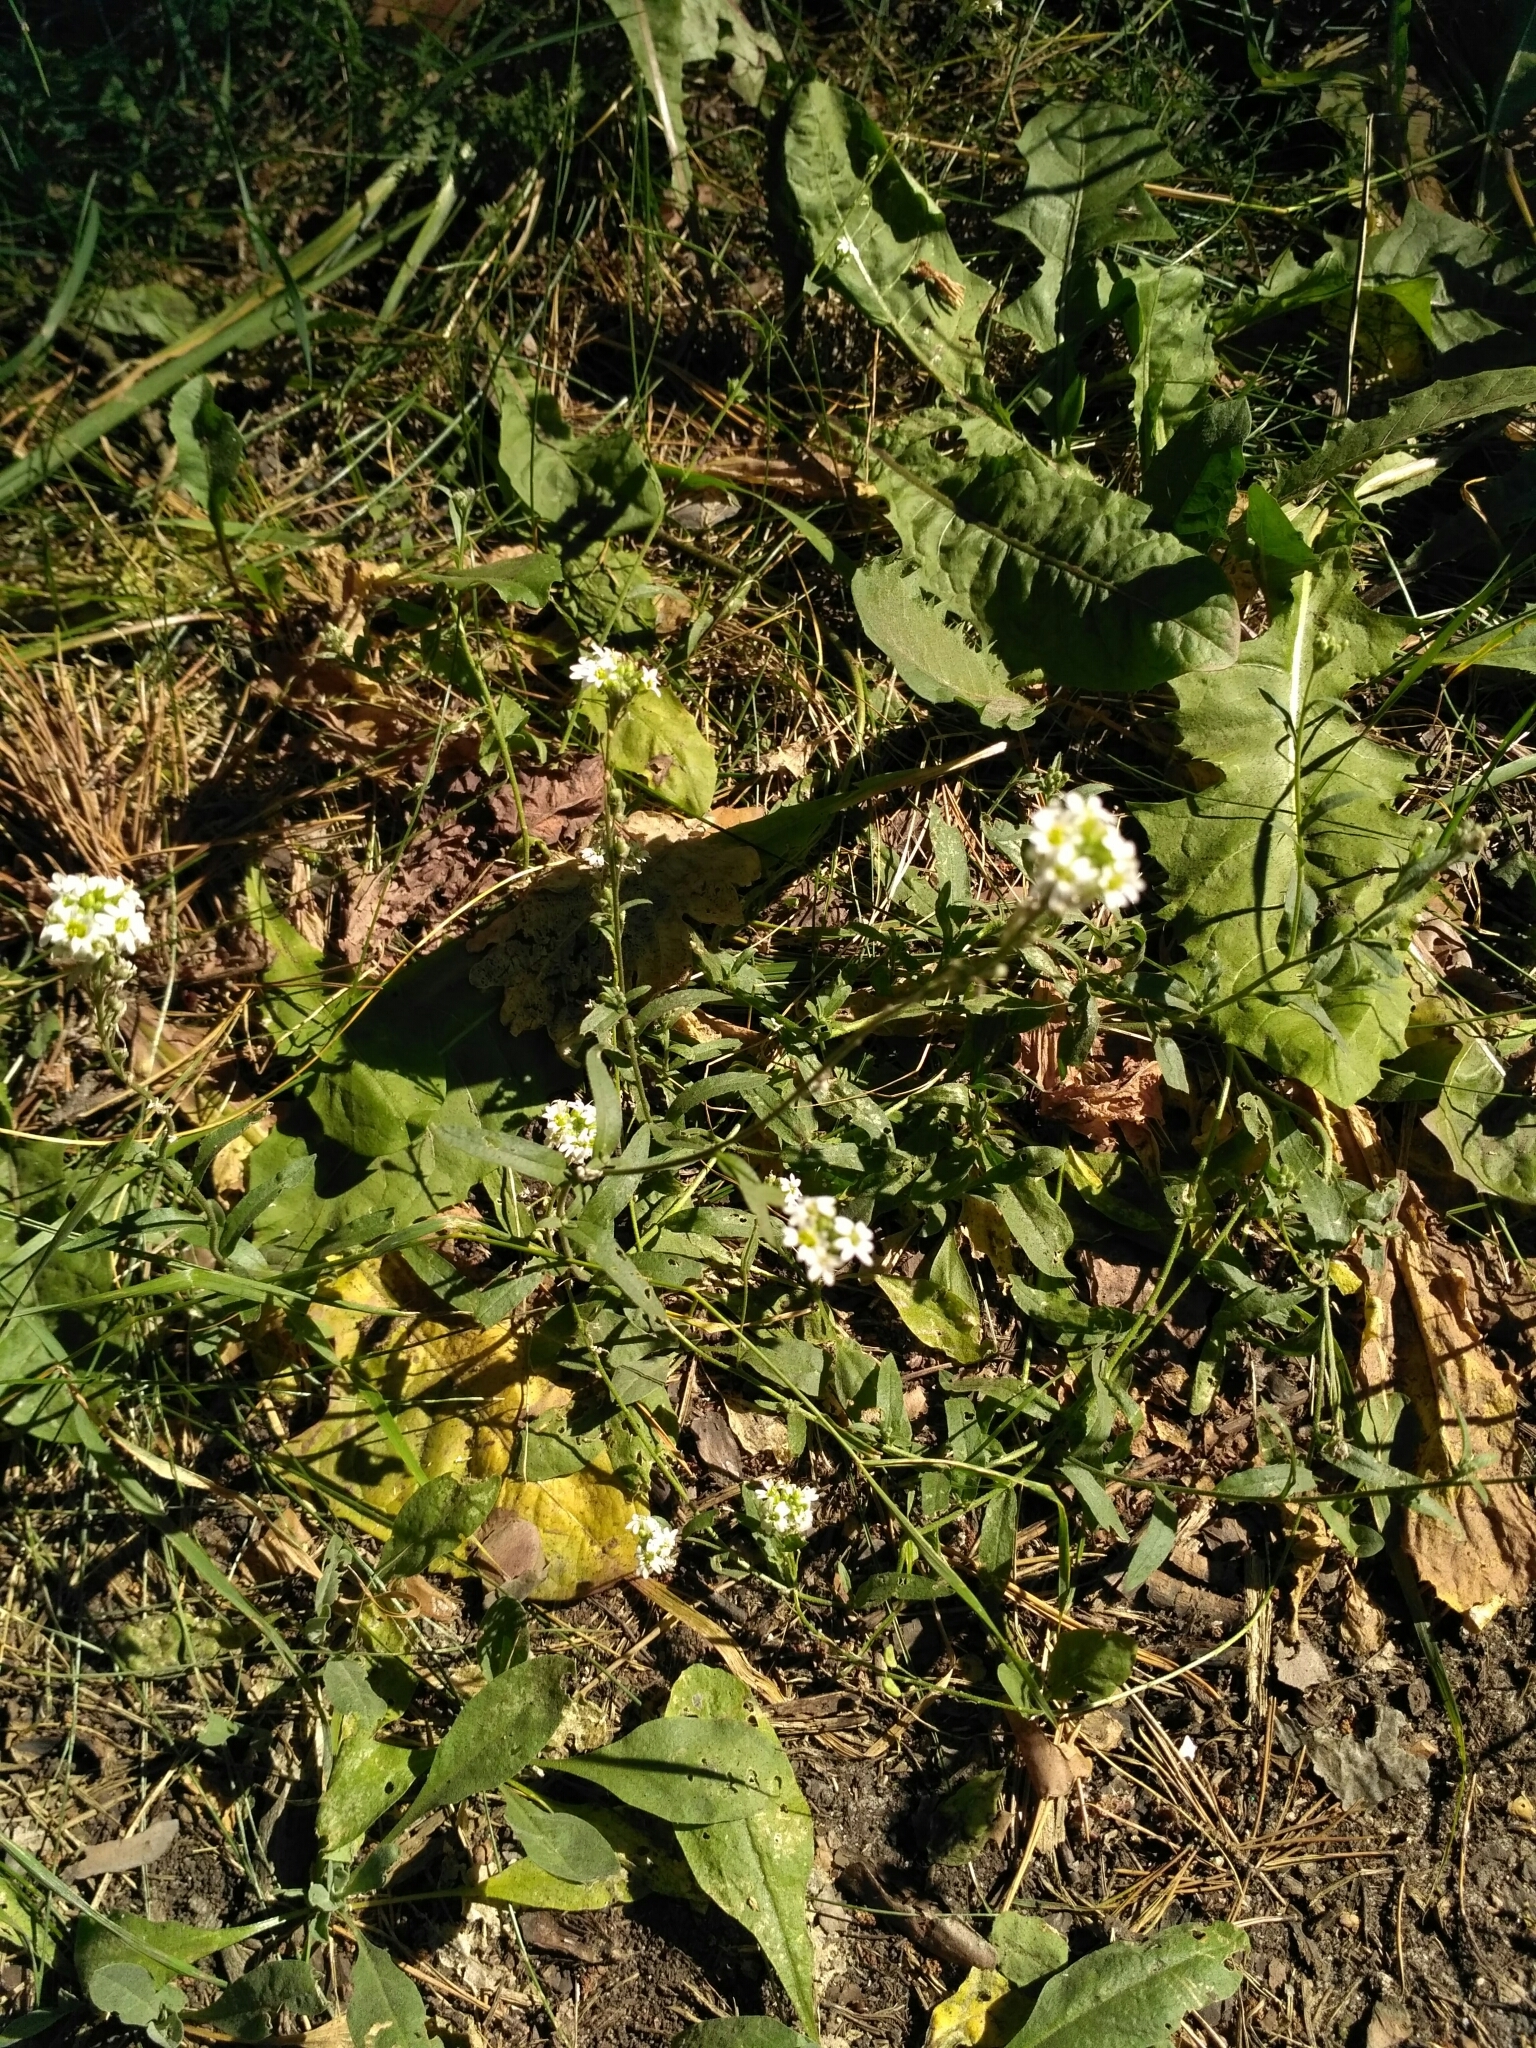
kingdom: Plantae
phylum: Tracheophyta
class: Magnoliopsida
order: Brassicales
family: Brassicaceae
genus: Berteroa
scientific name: Berteroa incana
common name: Hoary alison
